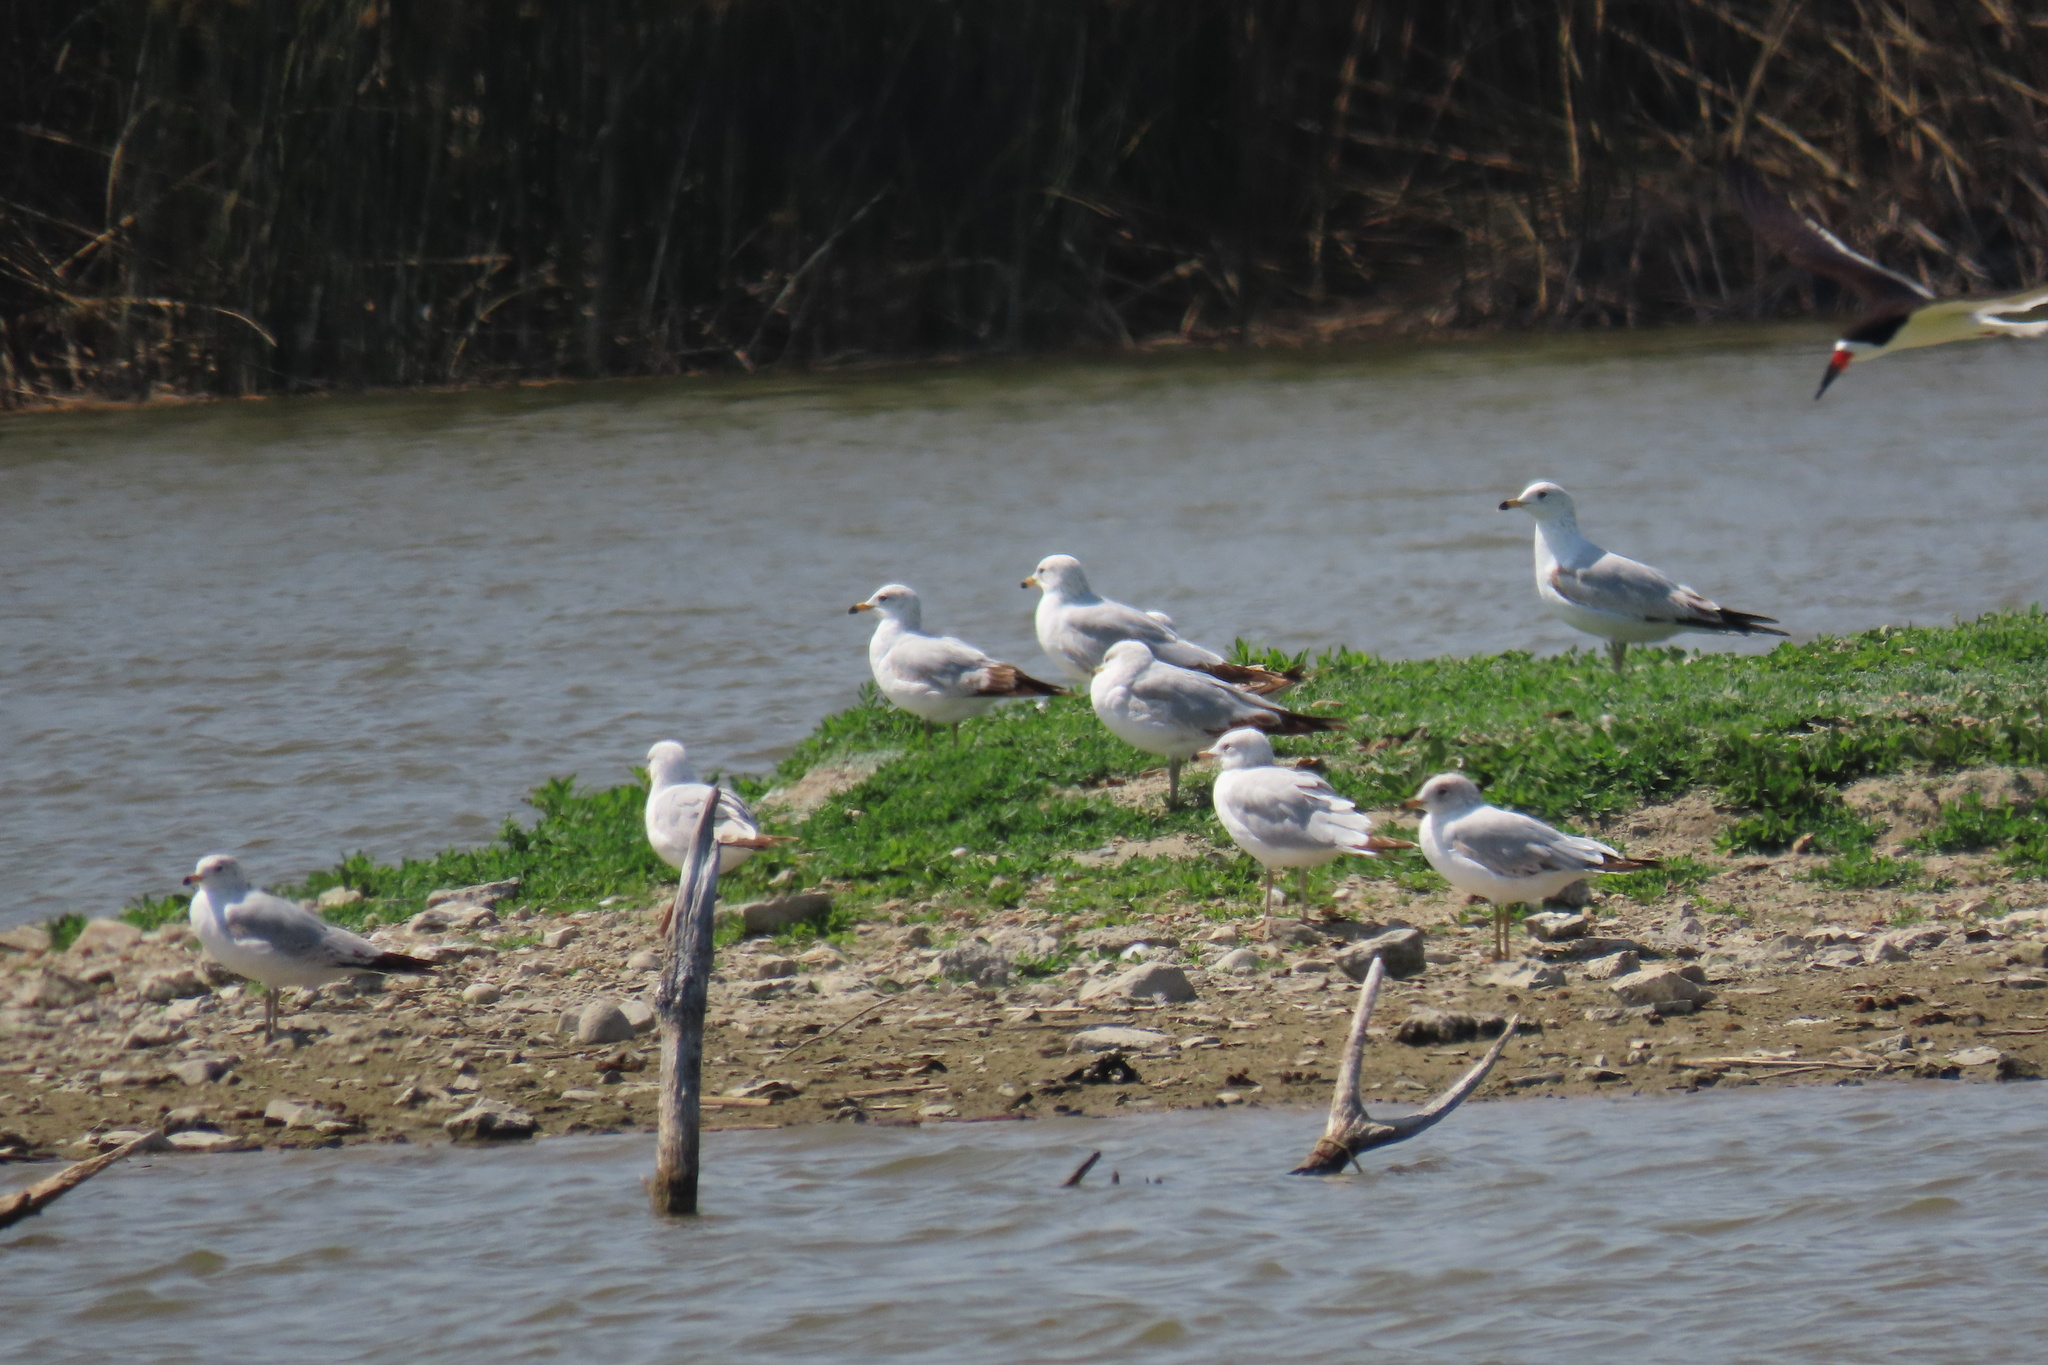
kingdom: Animalia
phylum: Chordata
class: Aves
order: Charadriiformes
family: Laridae
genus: Larus
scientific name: Larus delawarensis
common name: Ring-billed gull
